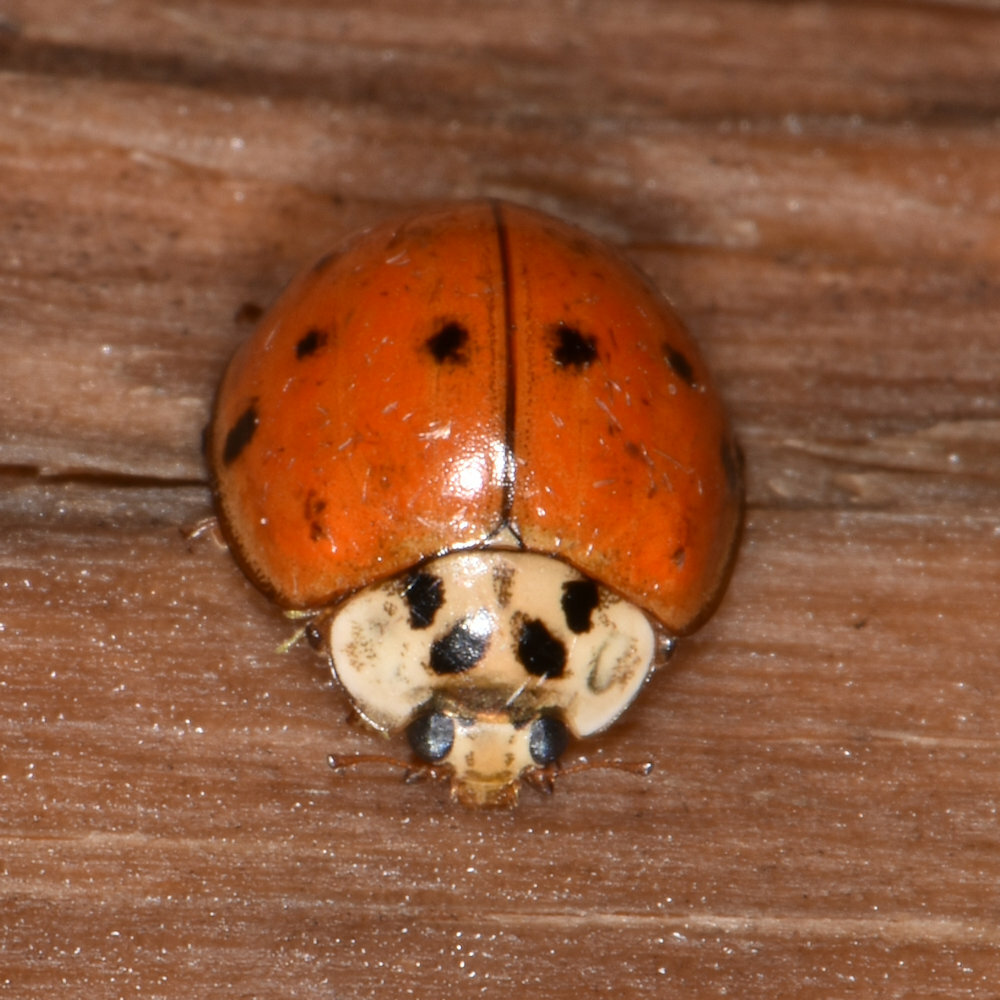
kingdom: Animalia
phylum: Arthropoda
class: Insecta
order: Coleoptera
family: Coccinellidae
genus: Harmonia
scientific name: Harmonia axyridis
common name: Harlequin ladybird
